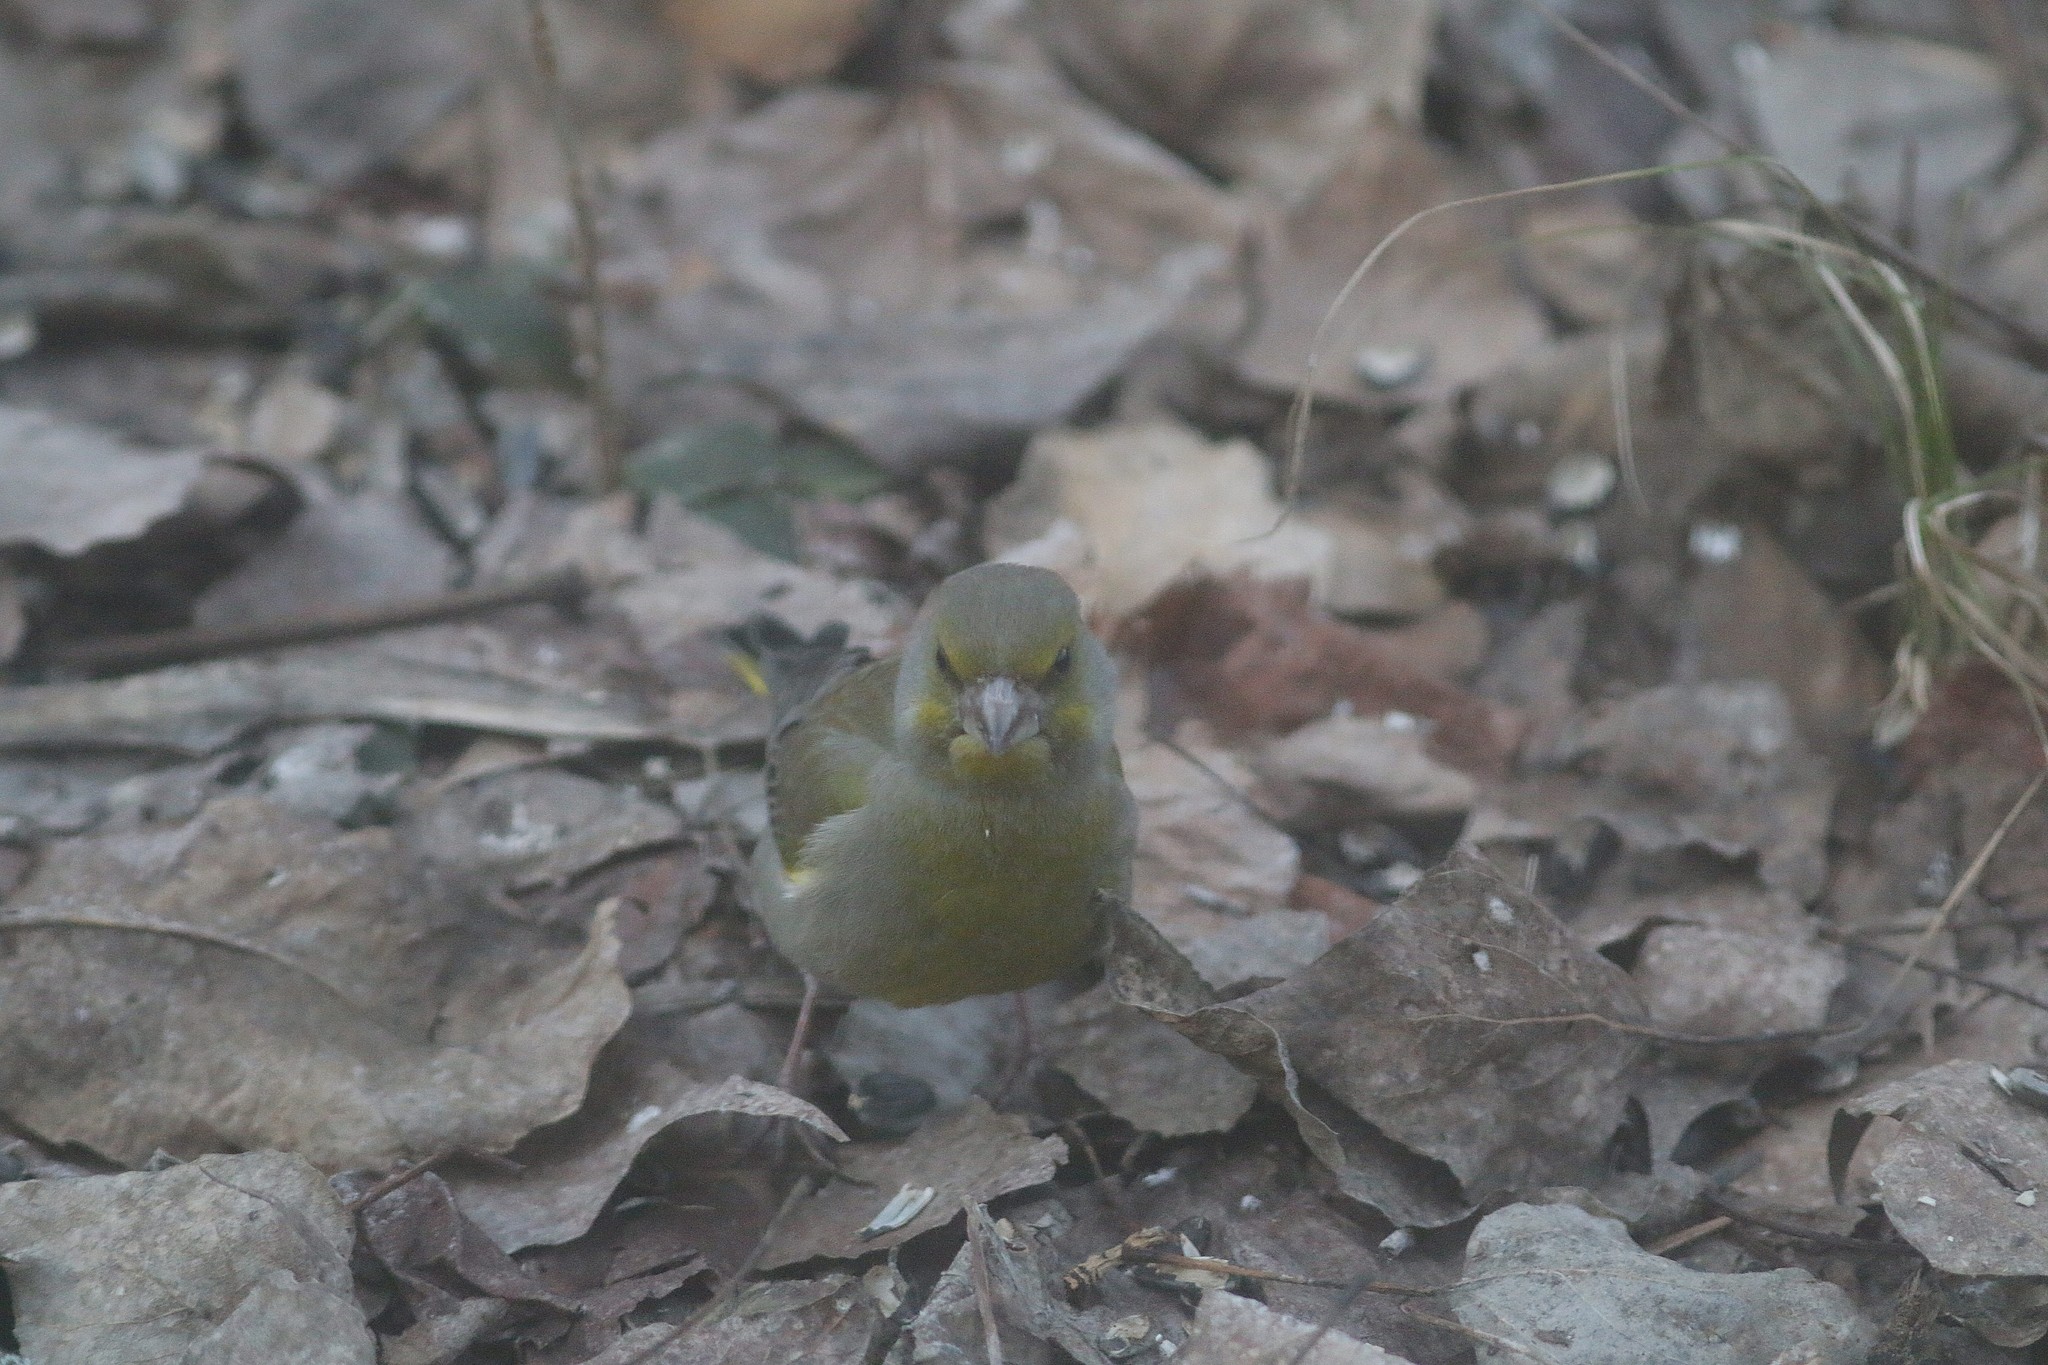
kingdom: Plantae
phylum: Tracheophyta
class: Liliopsida
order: Poales
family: Poaceae
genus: Chloris
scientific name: Chloris chloris
